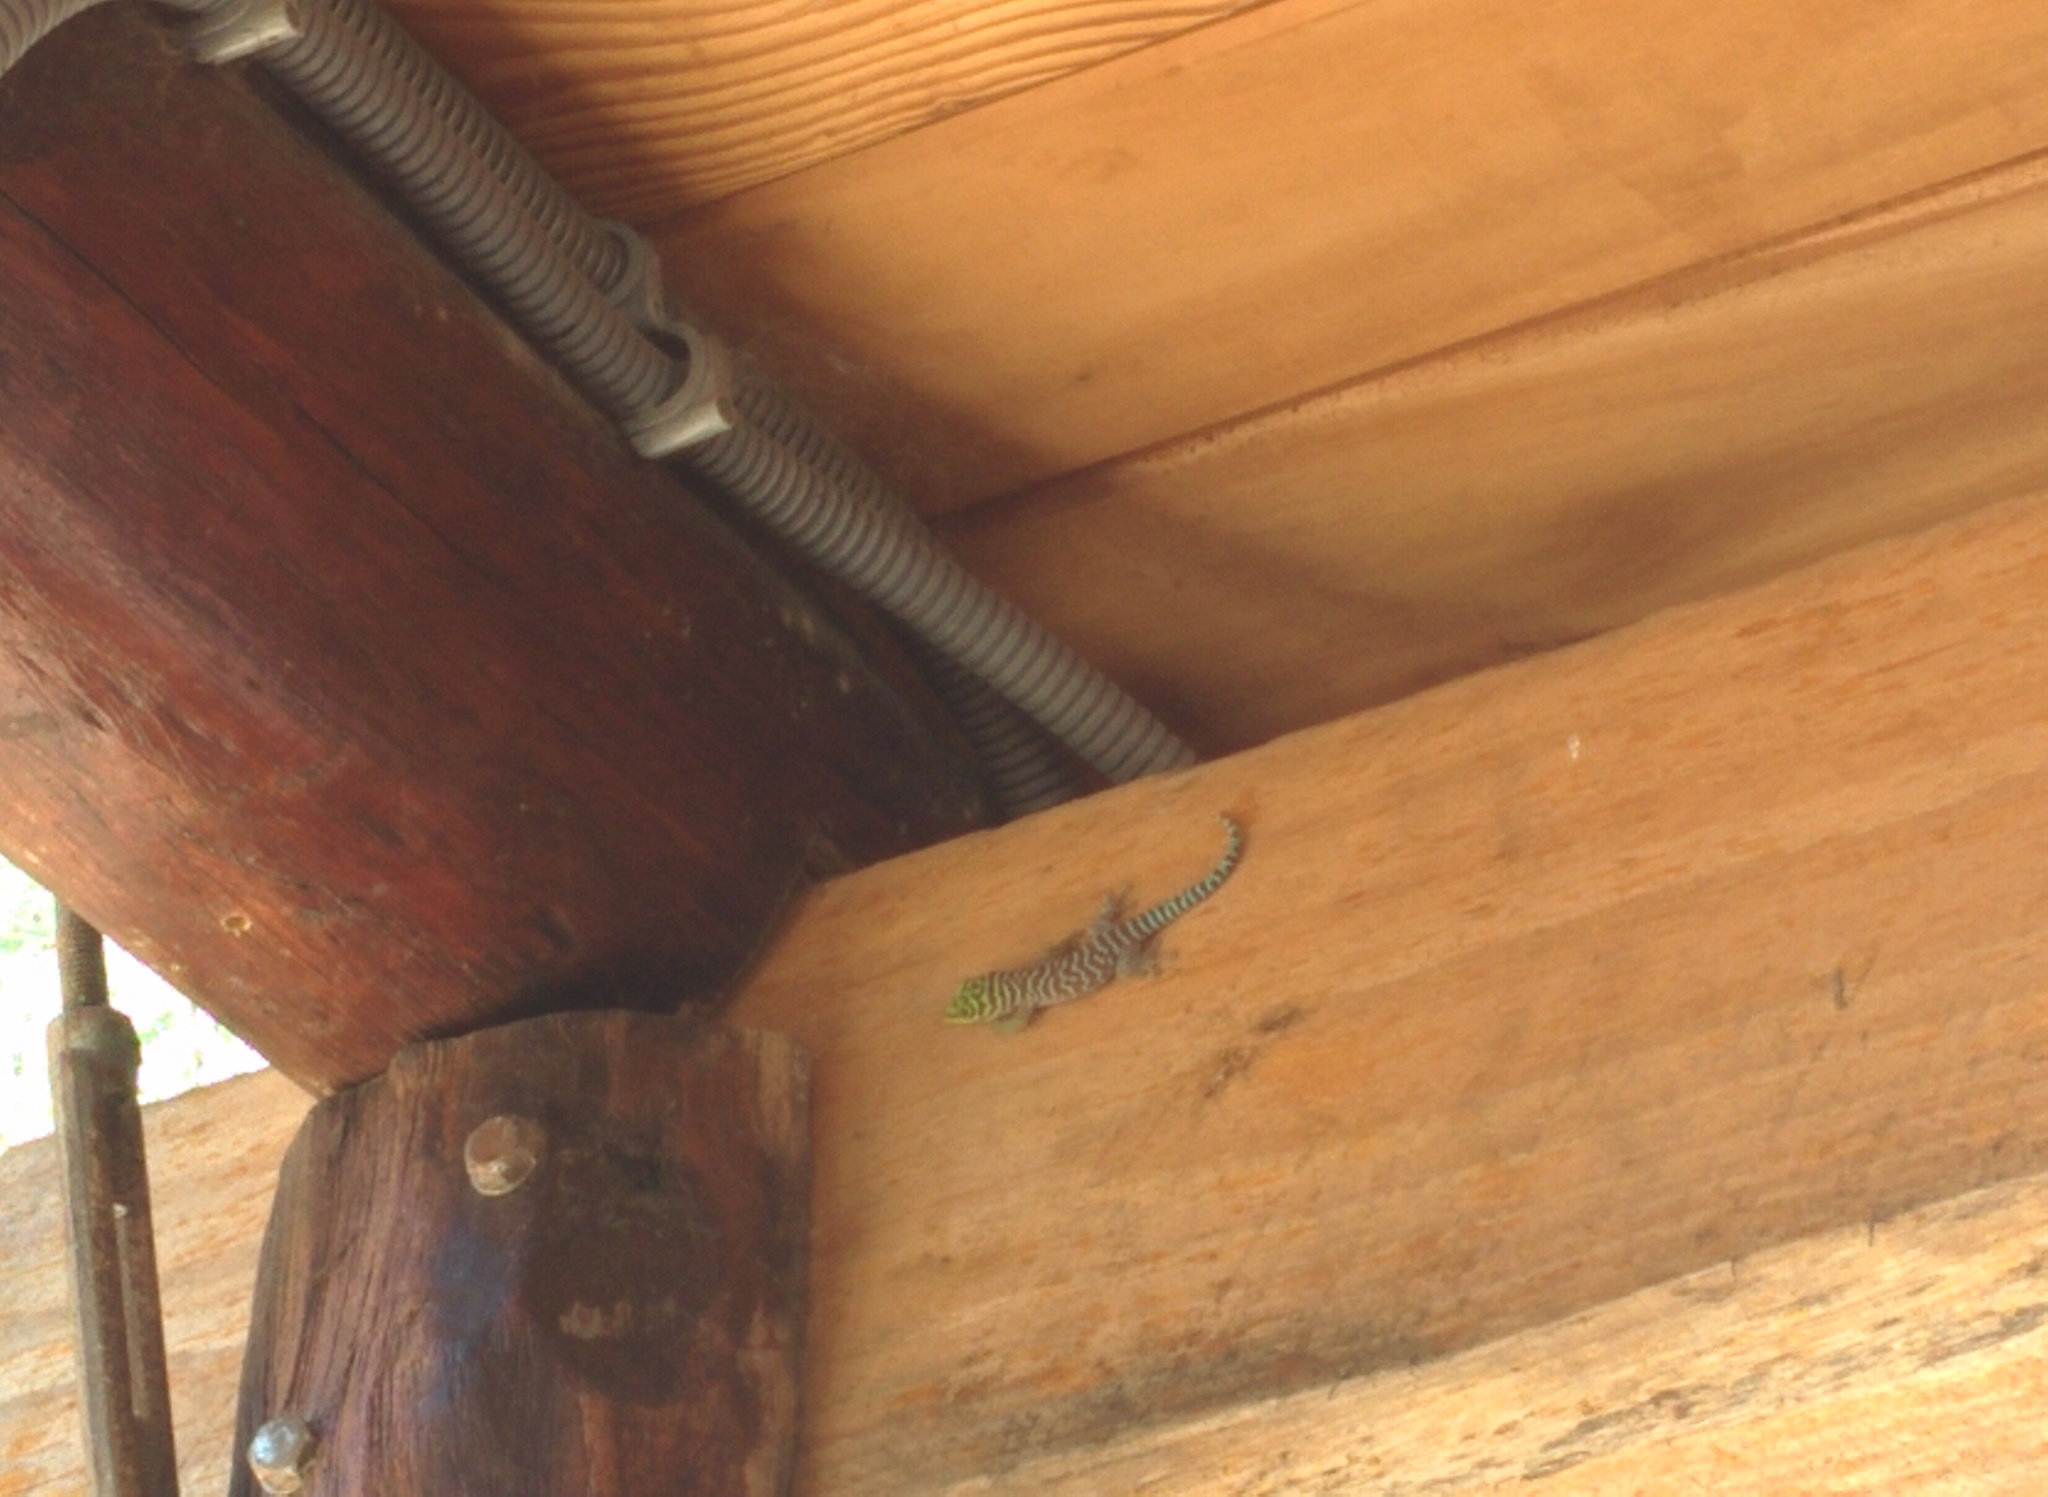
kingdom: Animalia
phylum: Chordata
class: Squamata
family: Gekkonidae
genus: Phelsuma
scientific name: Phelsuma standingi
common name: Standing's day gecko
